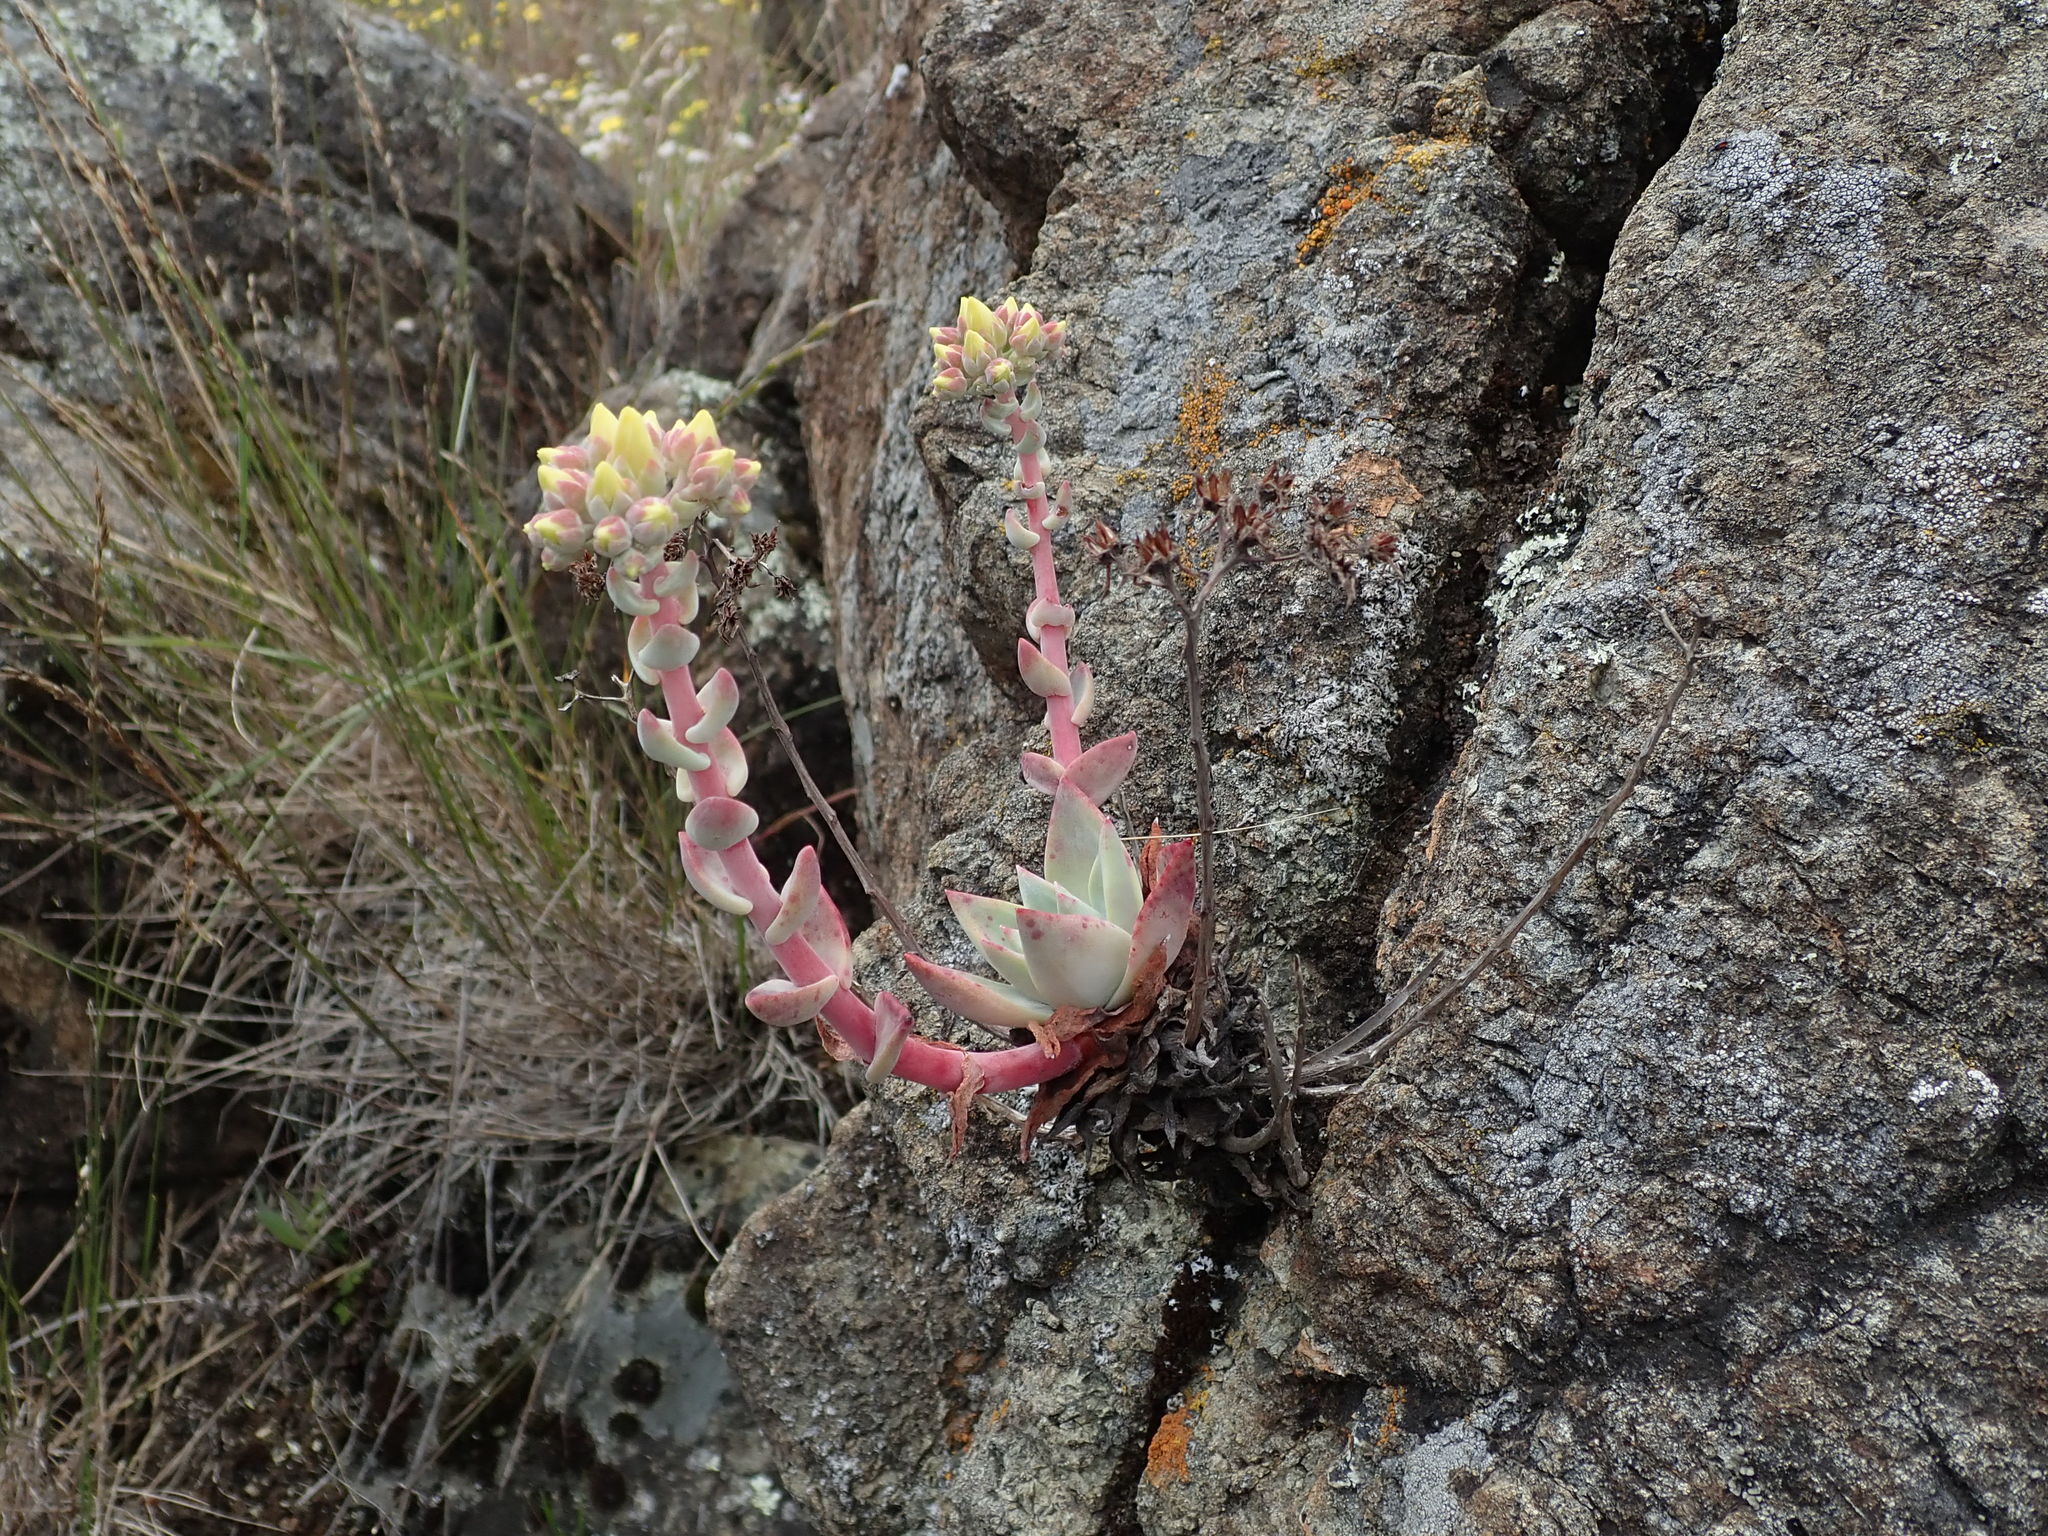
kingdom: Plantae
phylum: Tracheophyta
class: Magnoliopsida
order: Saxifragales
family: Crassulaceae
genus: Dudleya
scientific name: Dudleya farinosa
